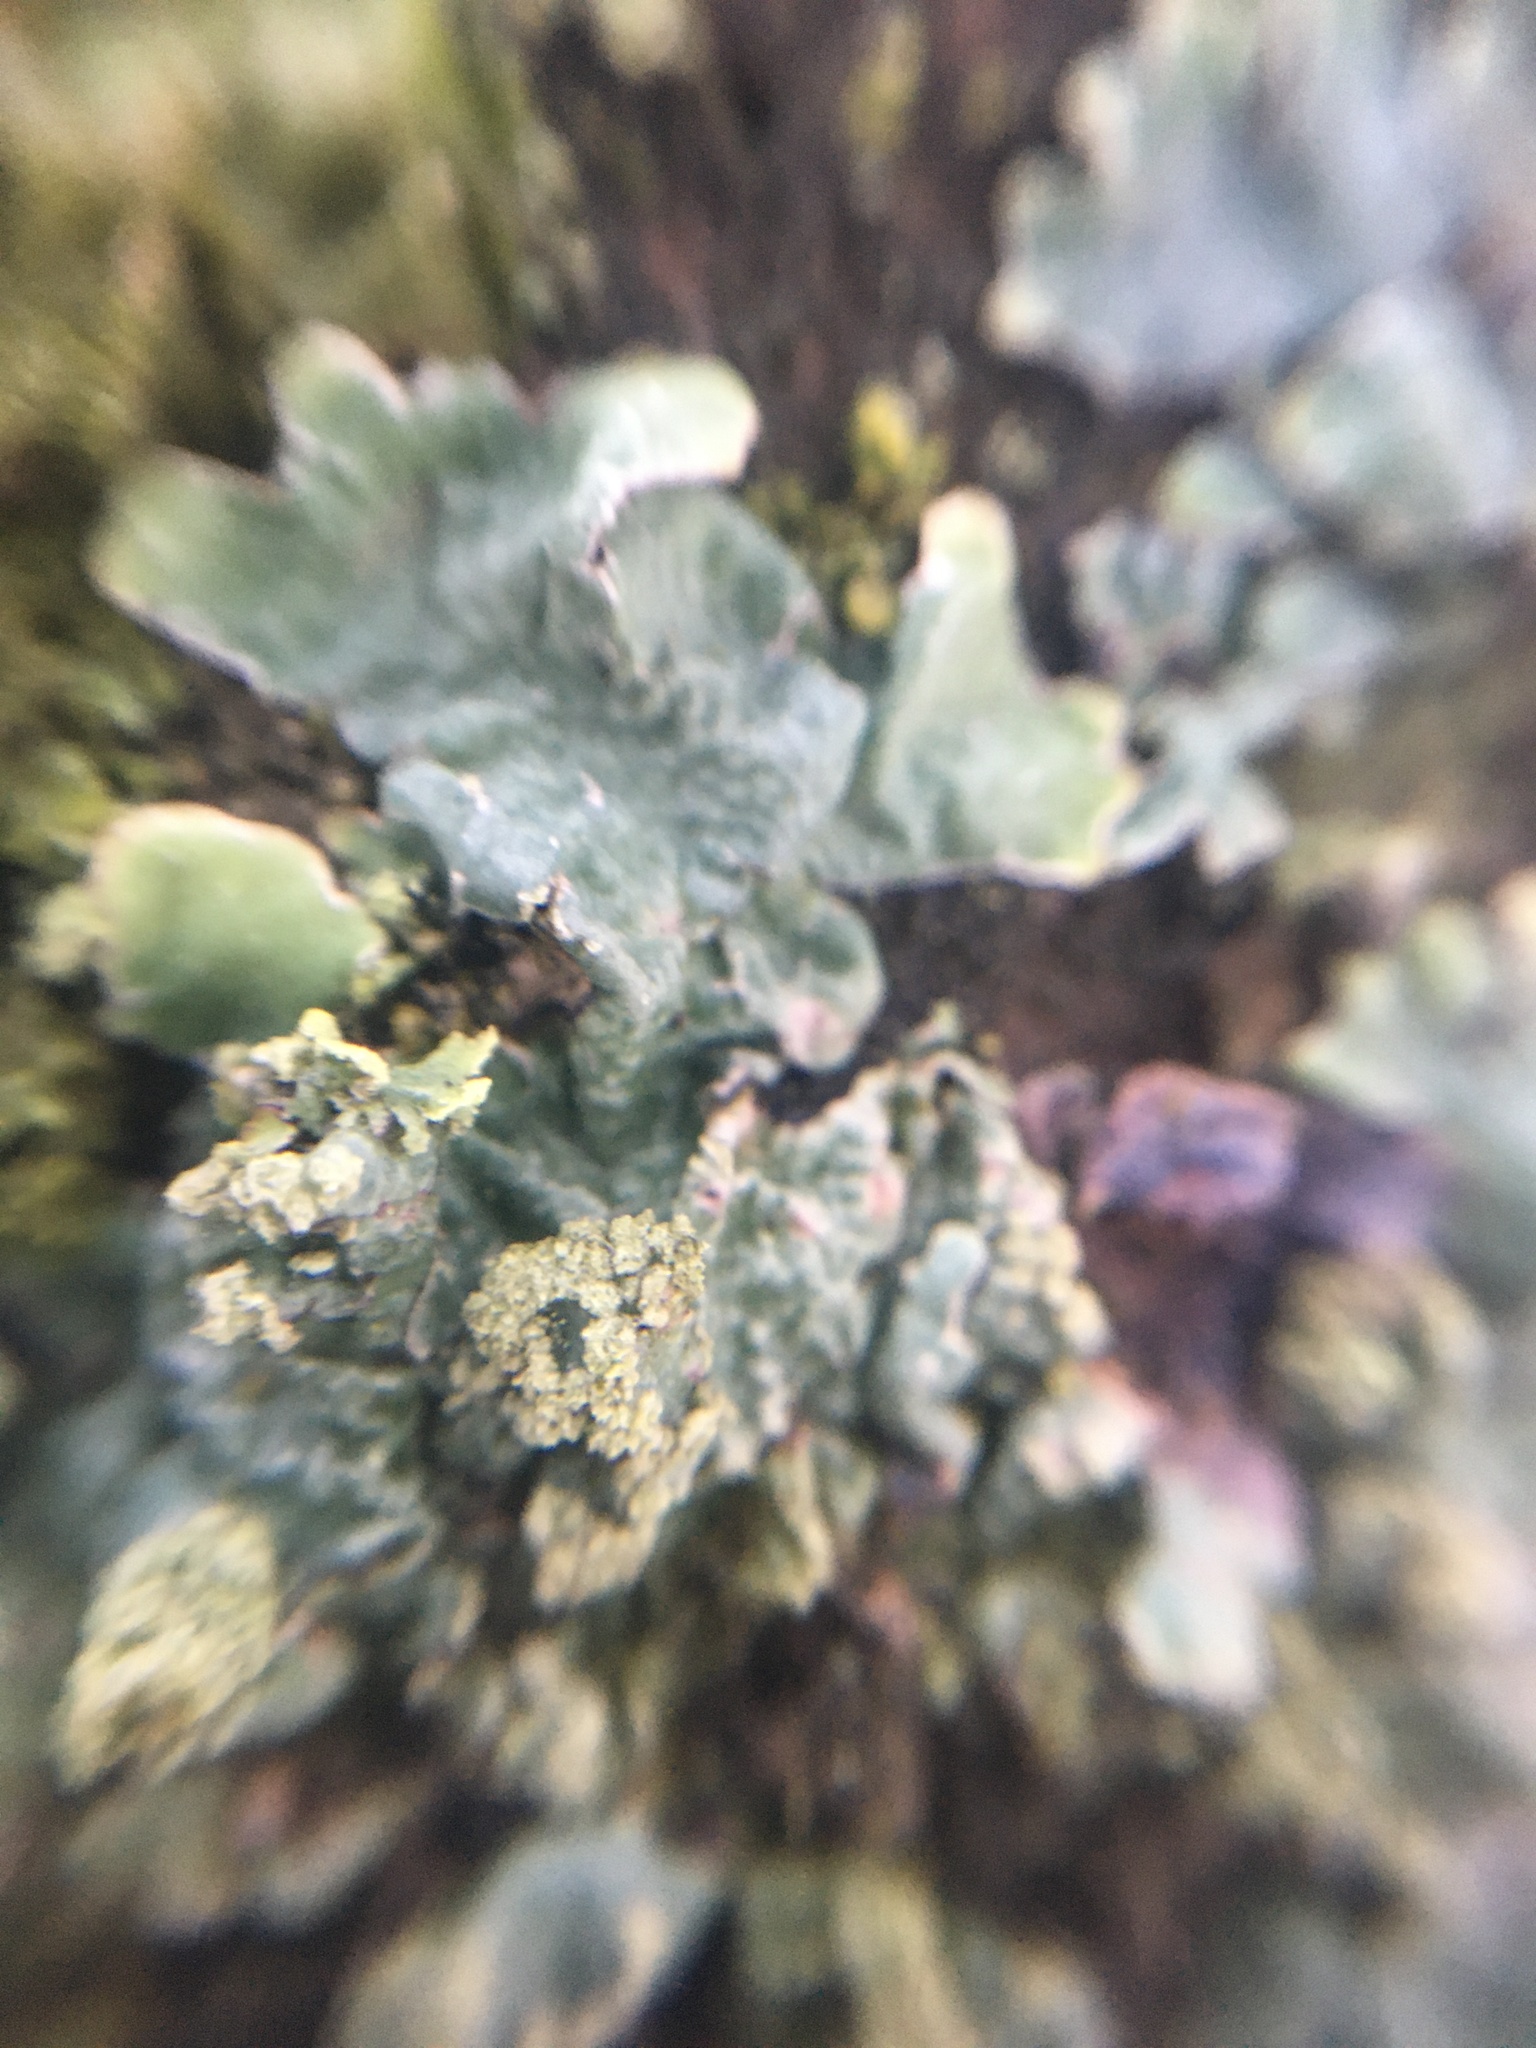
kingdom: Fungi
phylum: Ascomycota
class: Lecanoromycetes
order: Lecanorales
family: Parmeliaceae
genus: Parmelia
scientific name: Parmelia sulcata
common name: Netted shield lichen
